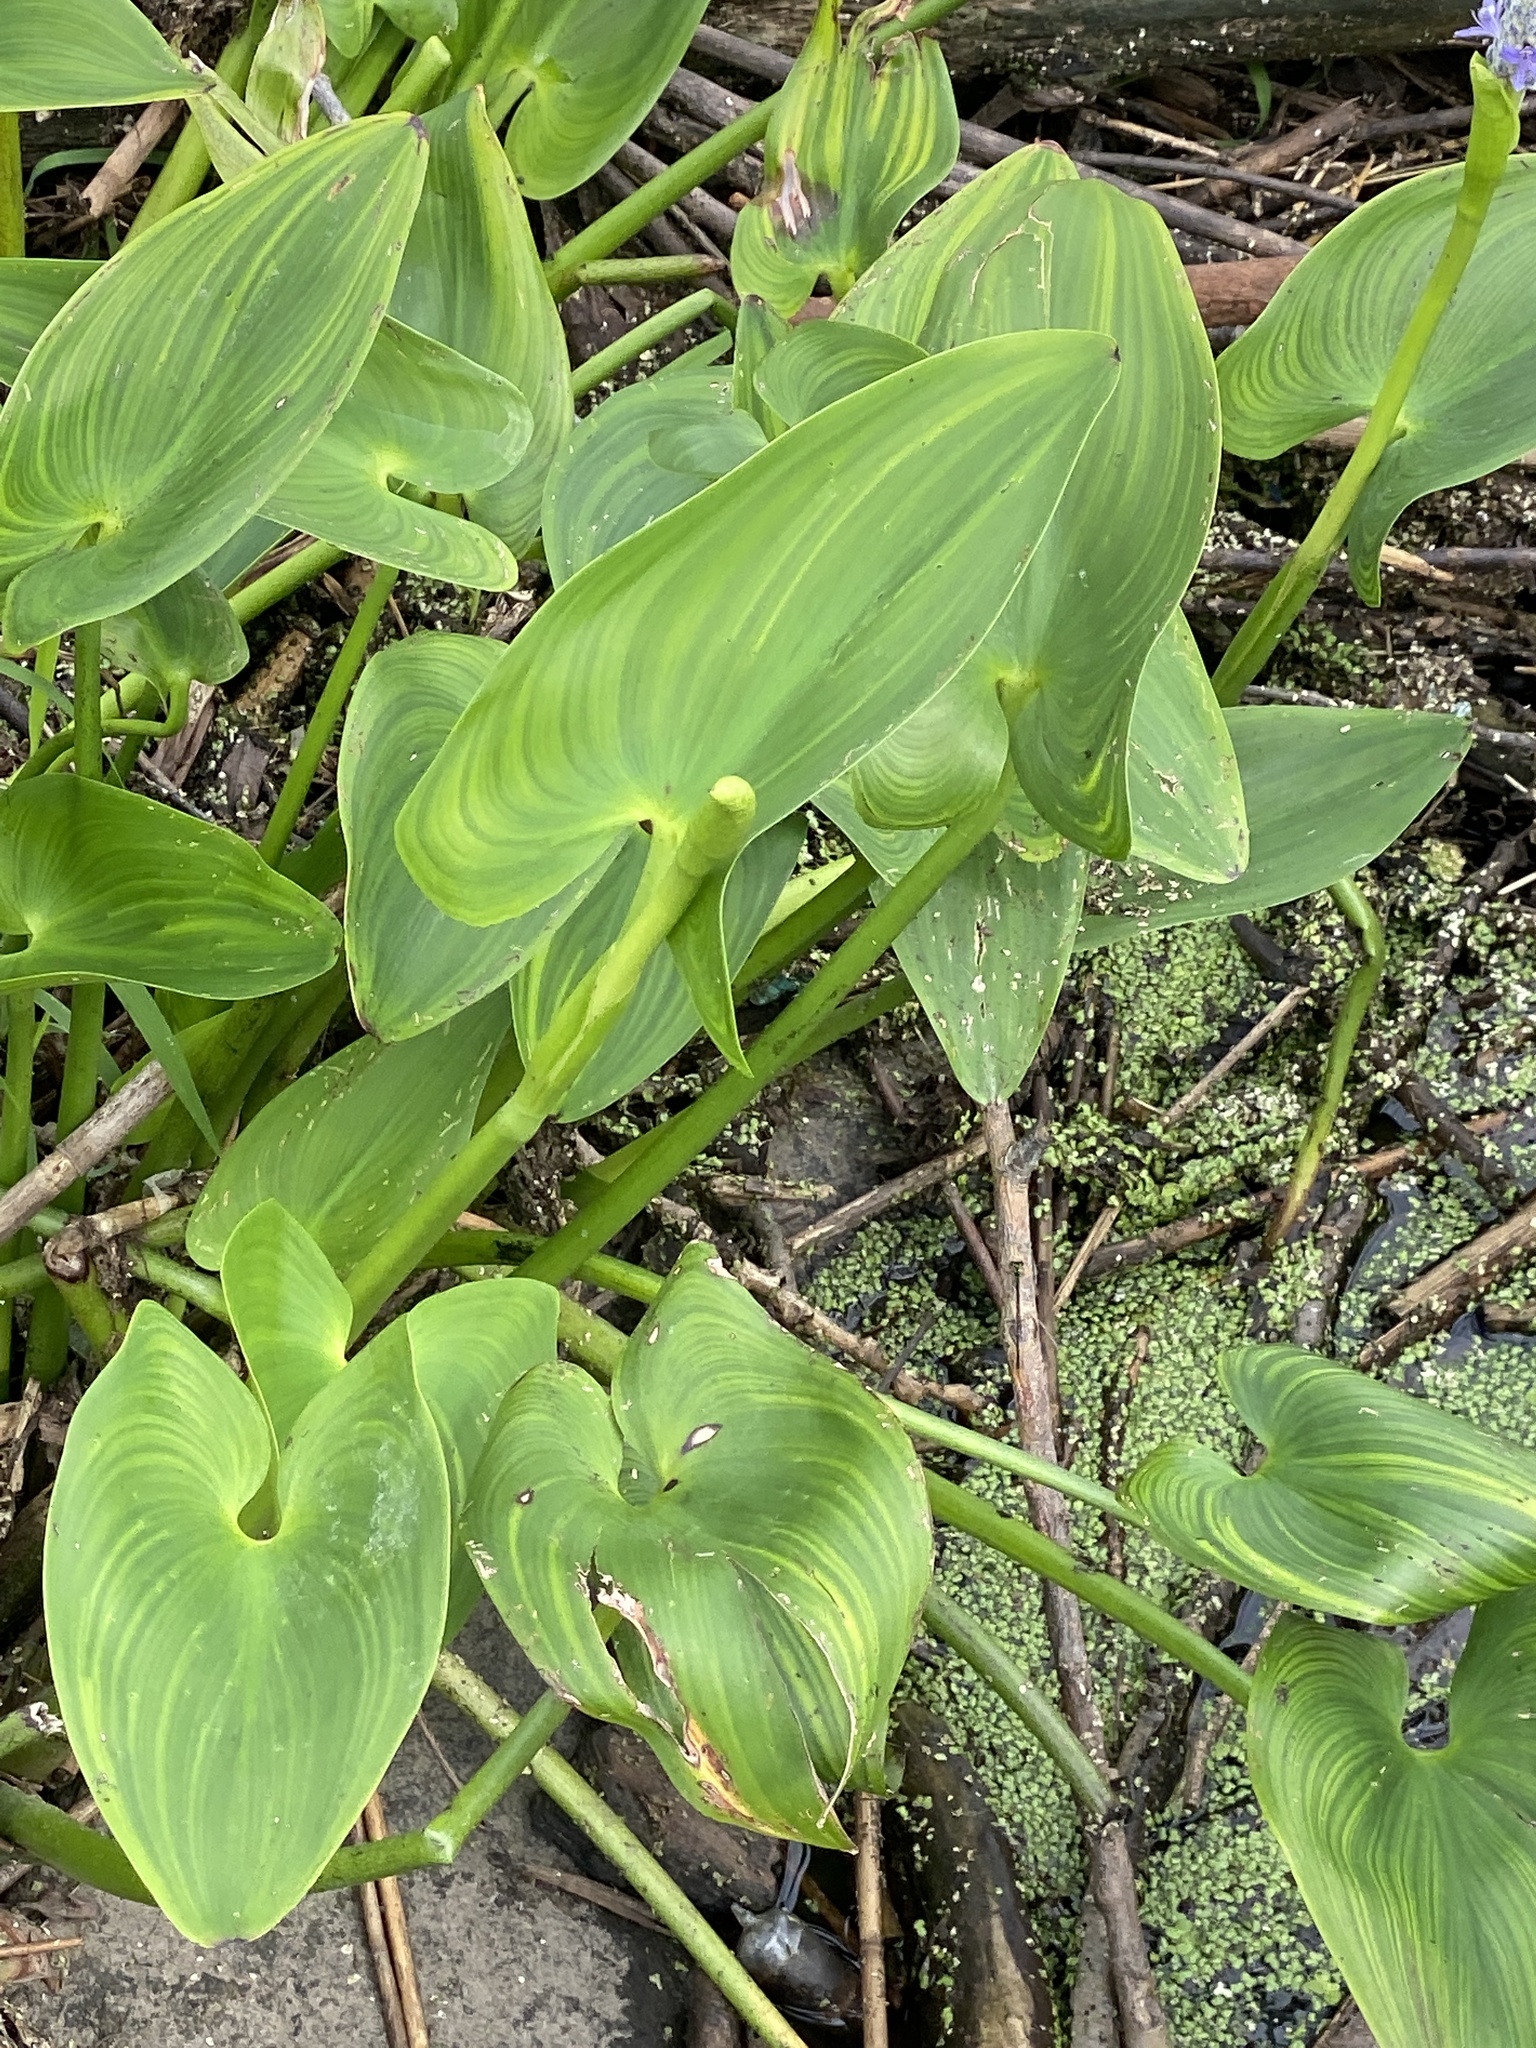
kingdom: Plantae
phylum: Tracheophyta
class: Liliopsida
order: Commelinales
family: Pontederiaceae
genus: Pontederia
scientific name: Pontederia cordata
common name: Pickerelweed
